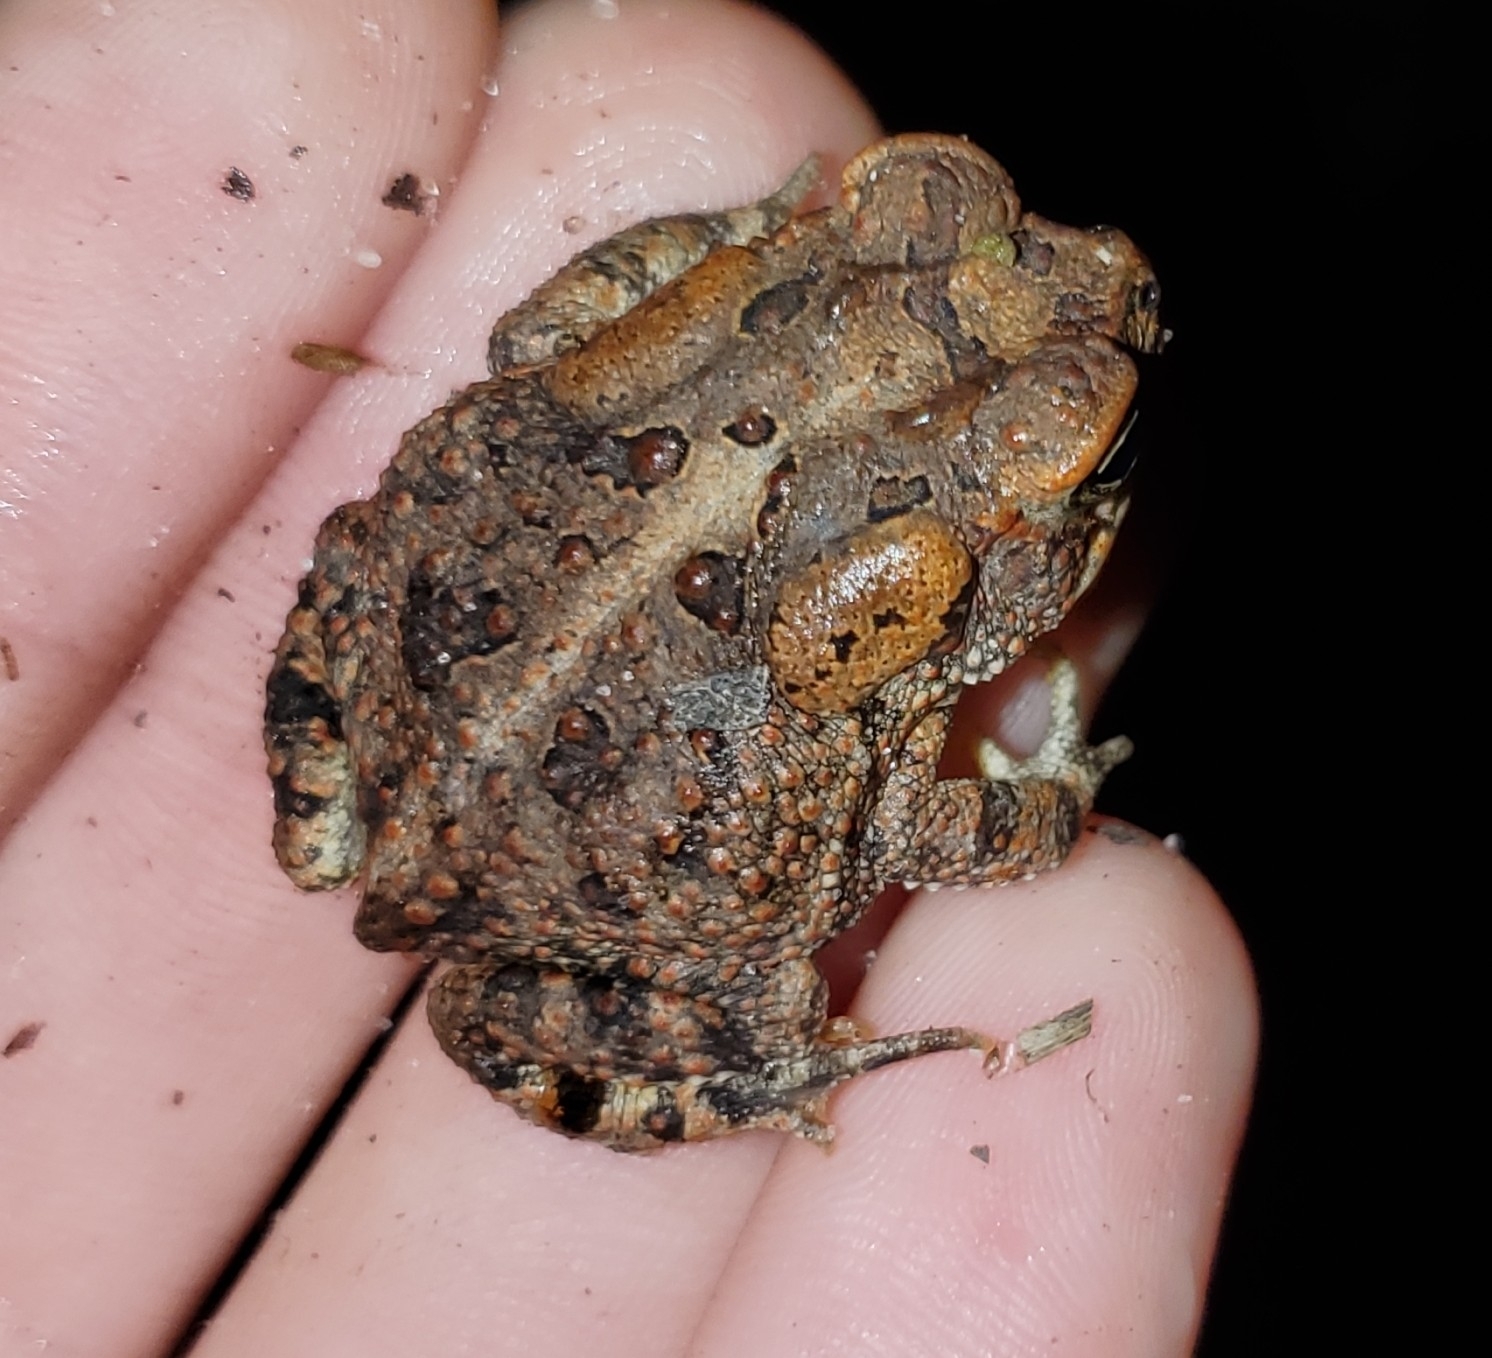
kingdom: Animalia
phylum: Chordata
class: Amphibia
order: Anura
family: Bufonidae
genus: Anaxyrus
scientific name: Anaxyrus terrestris
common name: Southern toad
